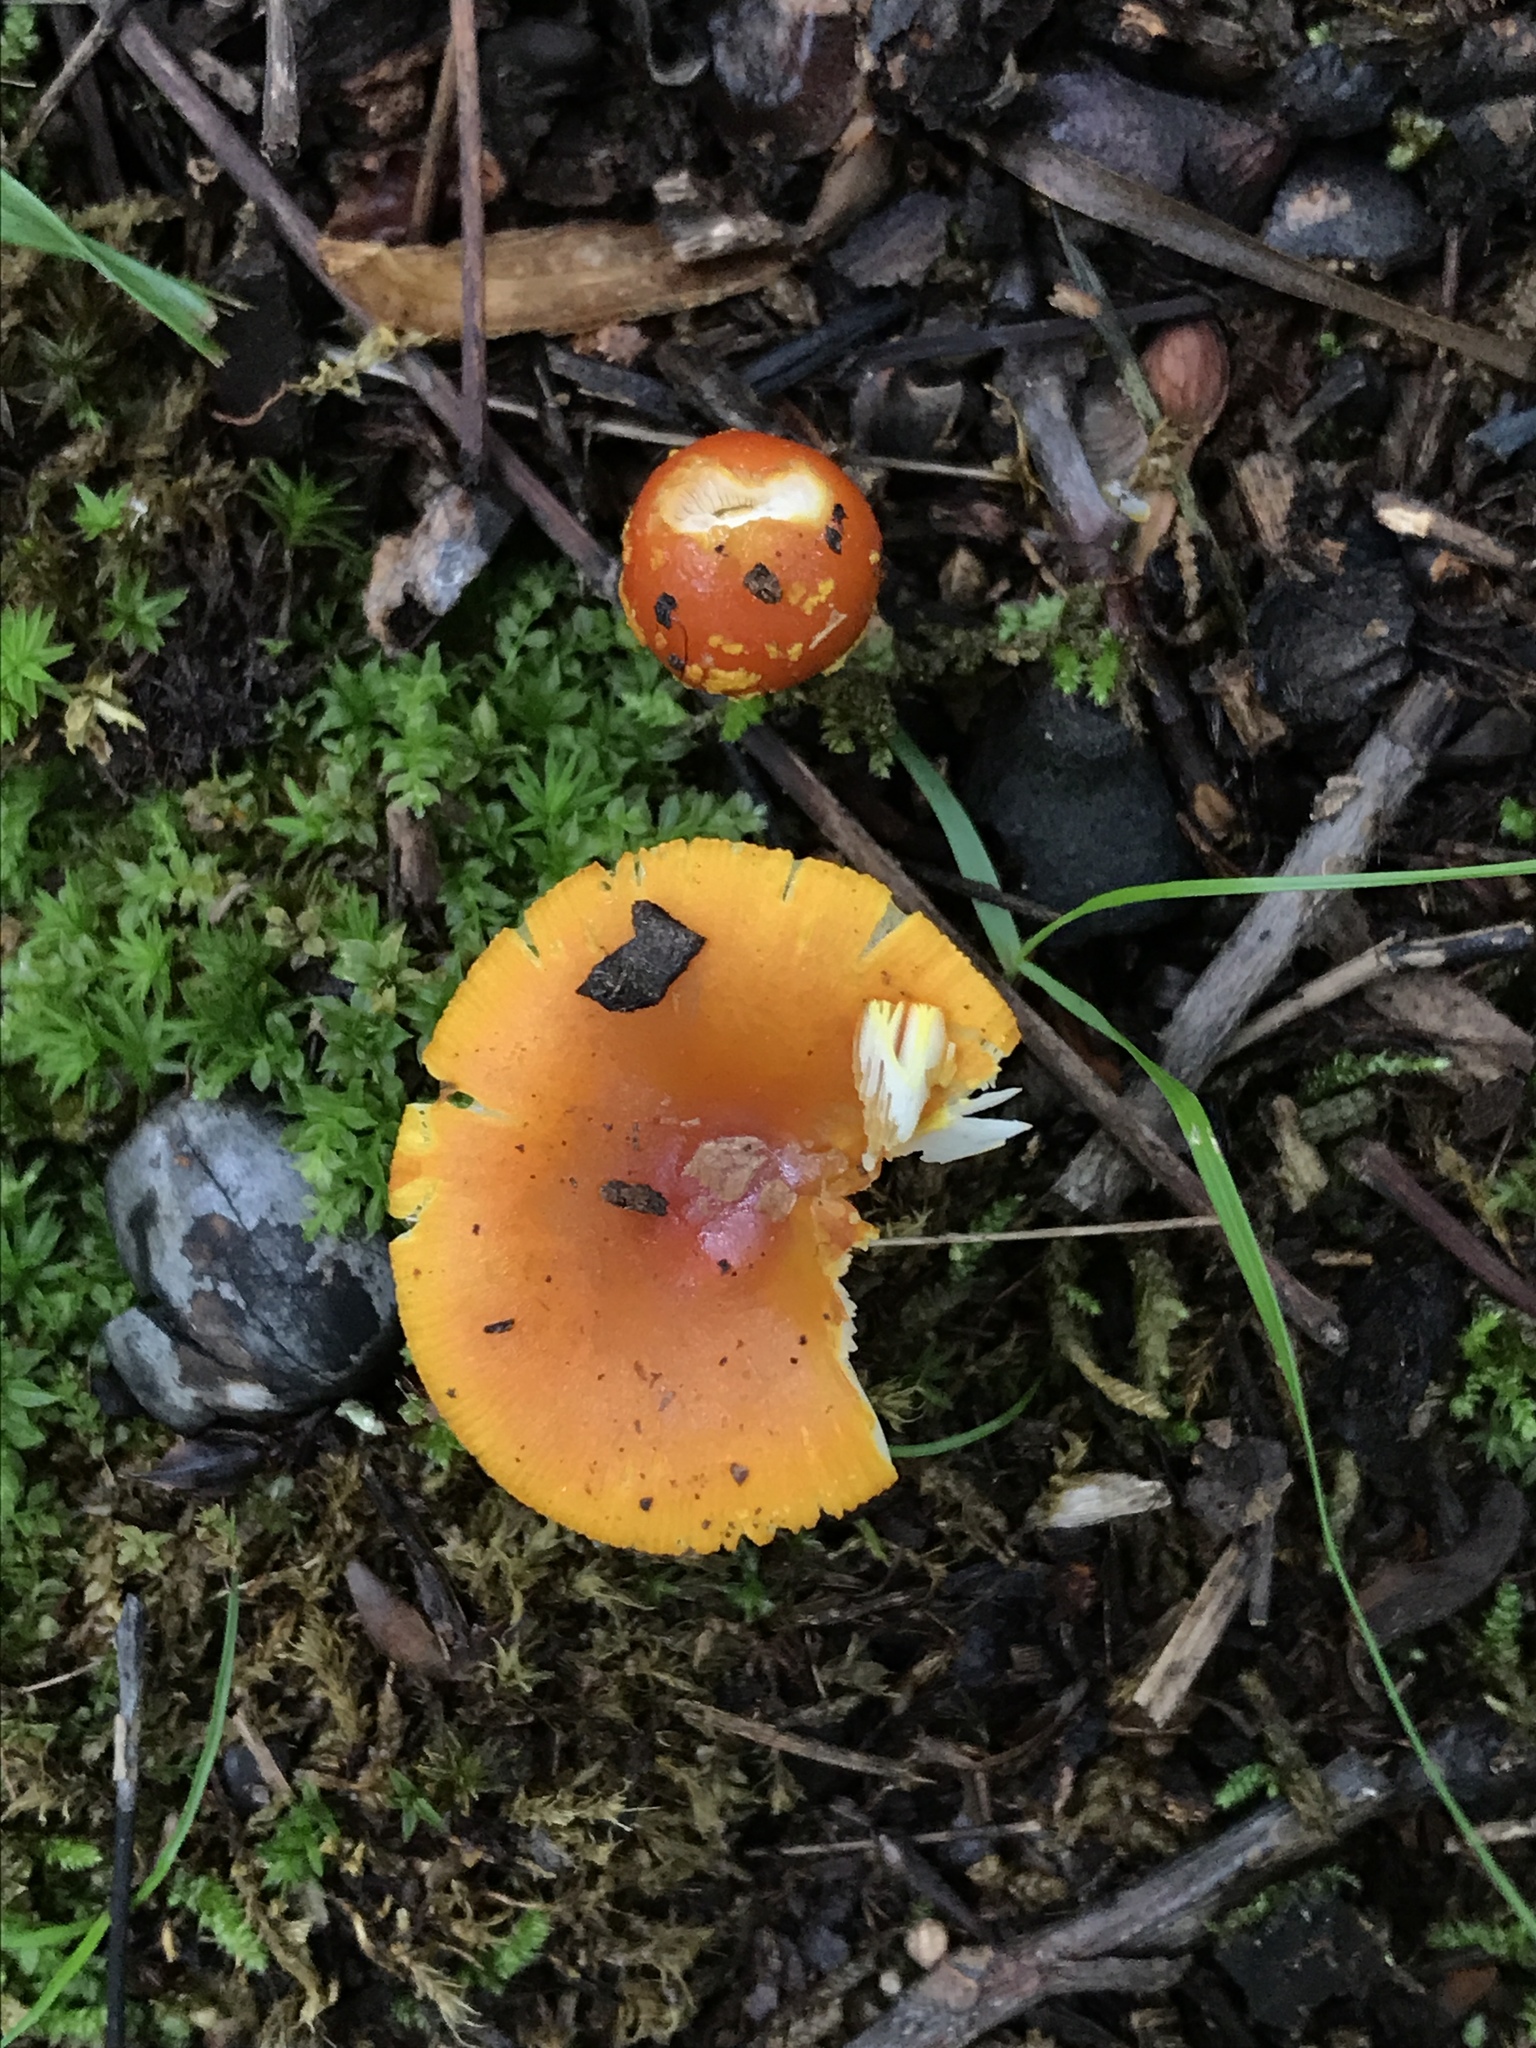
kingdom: Fungi
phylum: Basidiomycota
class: Agaricomycetes
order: Agaricales
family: Amanitaceae
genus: Amanita
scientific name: Amanita flavoconia
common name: Yellow patches
